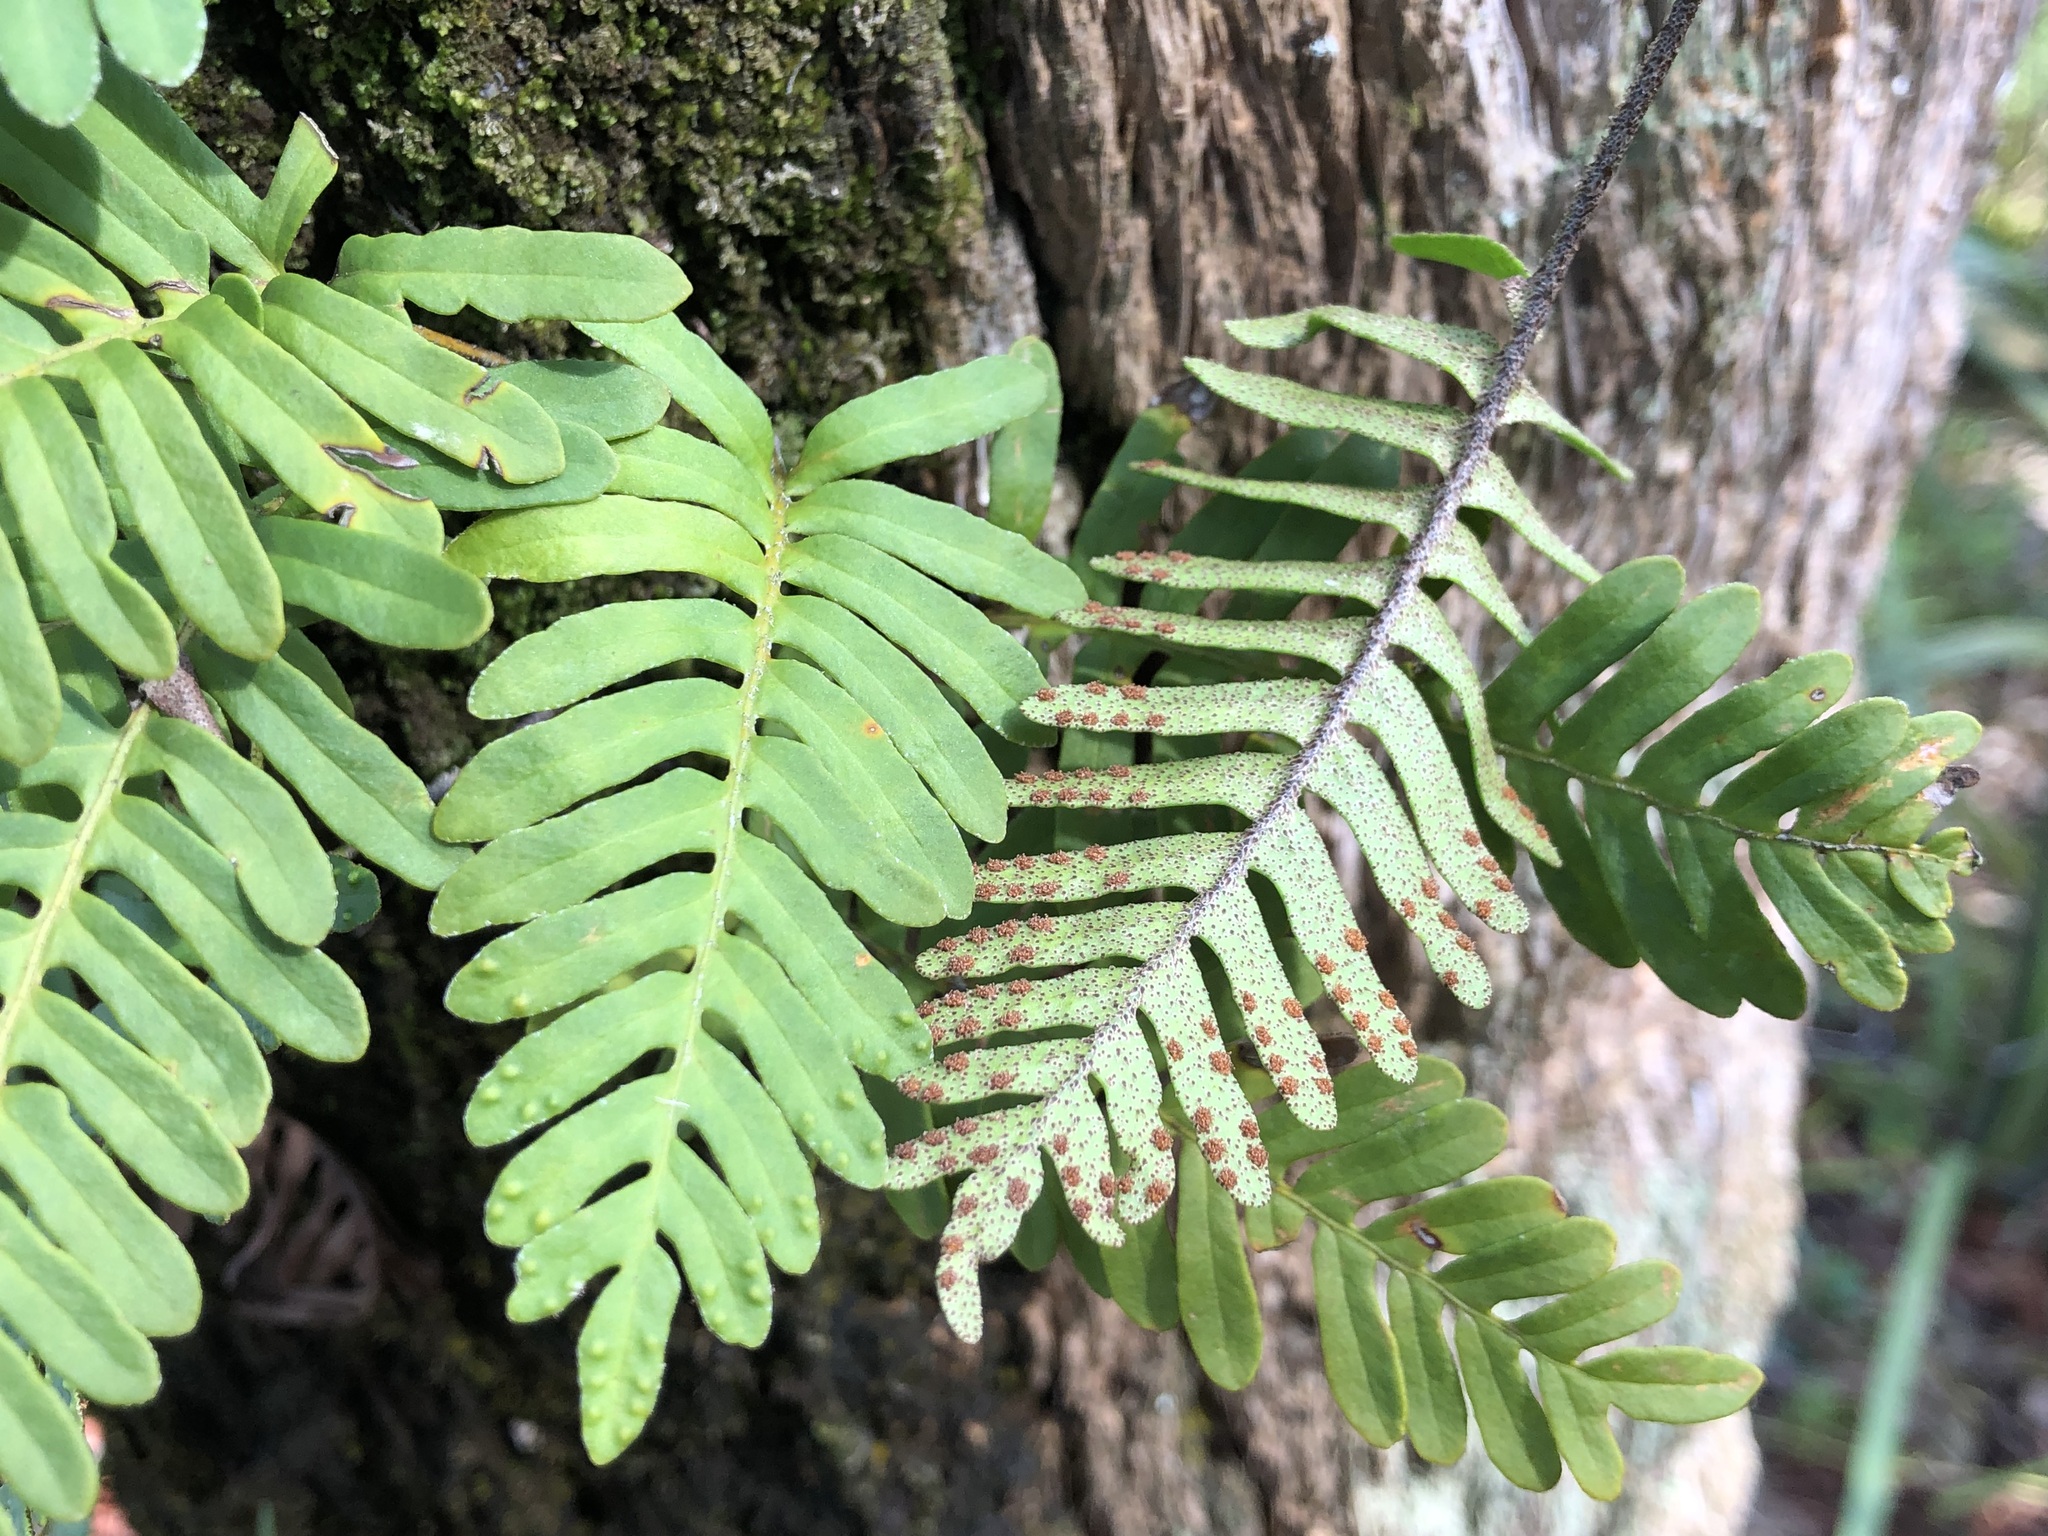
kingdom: Plantae
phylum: Tracheophyta
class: Polypodiopsida
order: Polypodiales
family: Polypodiaceae
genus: Pleopeltis
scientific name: Pleopeltis michauxiana
